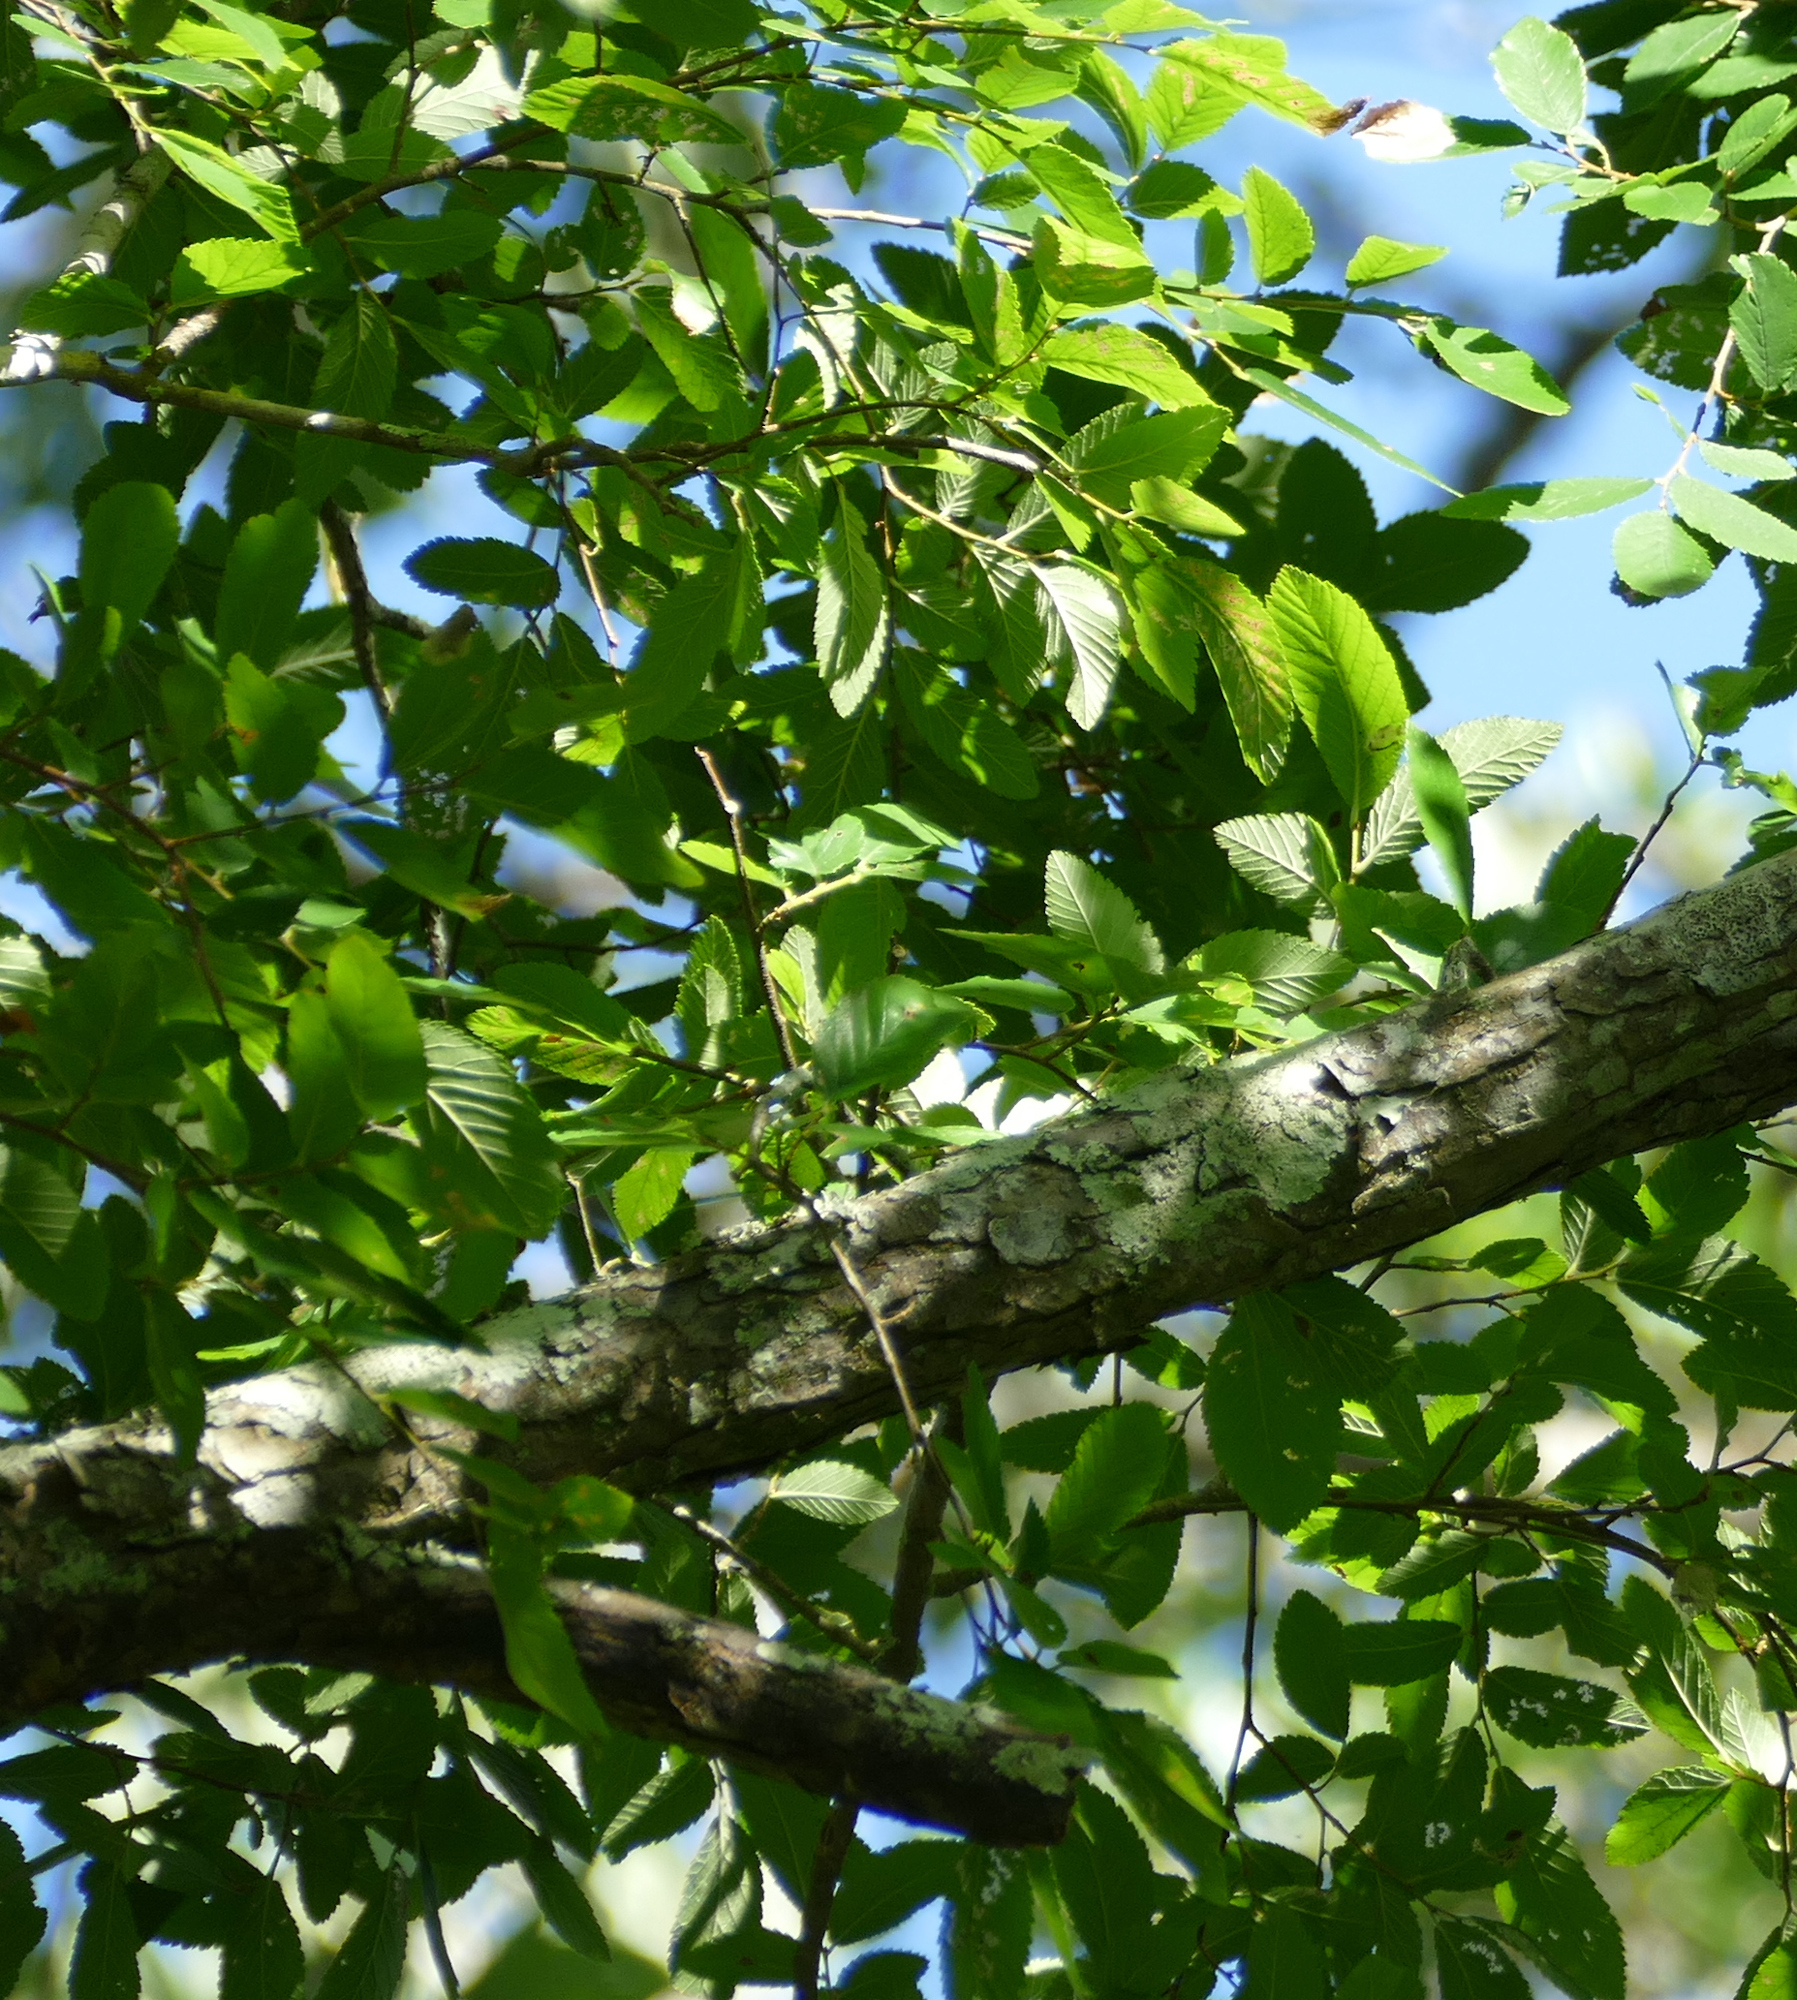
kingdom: Plantae
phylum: Tracheophyta
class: Magnoliopsida
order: Rosales
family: Ulmaceae
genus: Ulmus
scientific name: Ulmus crassifolia
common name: Basket elm
